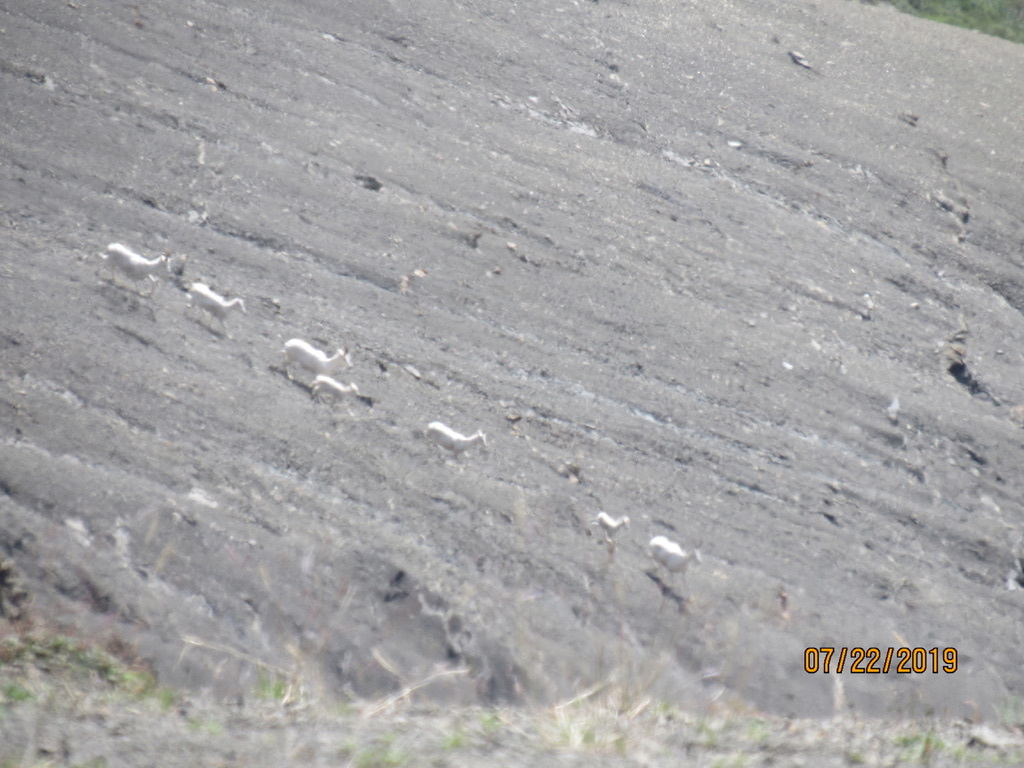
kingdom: Animalia
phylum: Chordata
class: Mammalia
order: Artiodactyla
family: Bovidae
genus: Ovis
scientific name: Ovis dalli
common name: Dall's sheep
